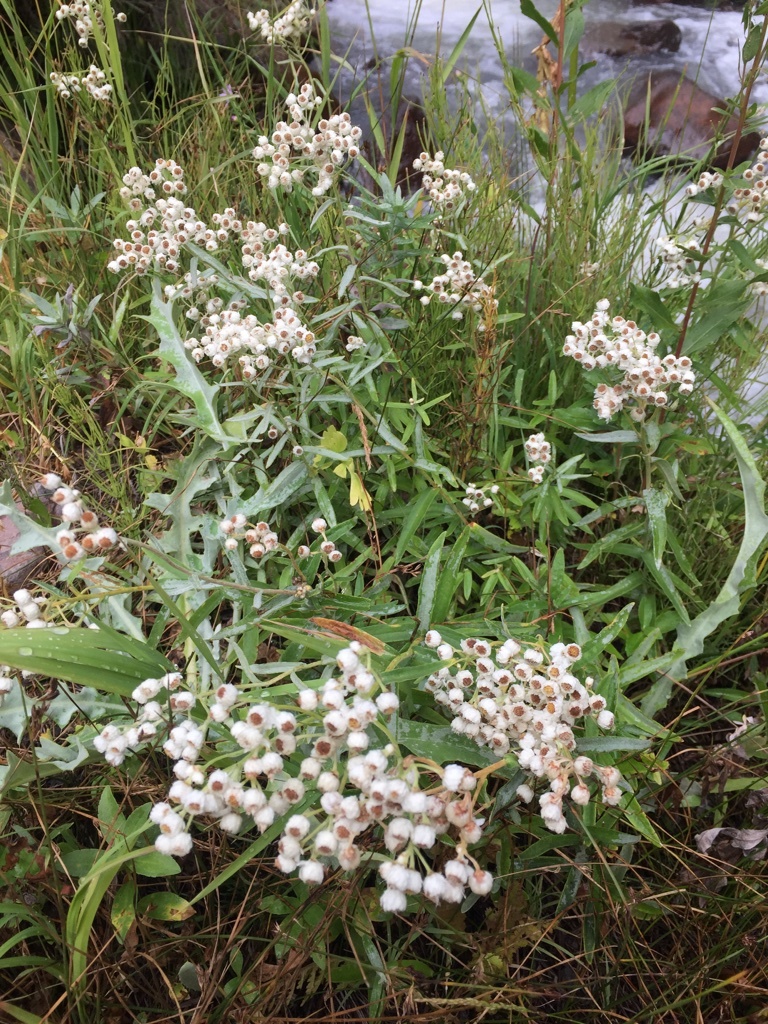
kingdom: Plantae
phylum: Tracheophyta
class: Magnoliopsida
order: Asterales
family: Asteraceae
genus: Anaphalis
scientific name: Anaphalis margaritacea
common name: Pearly everlasting
